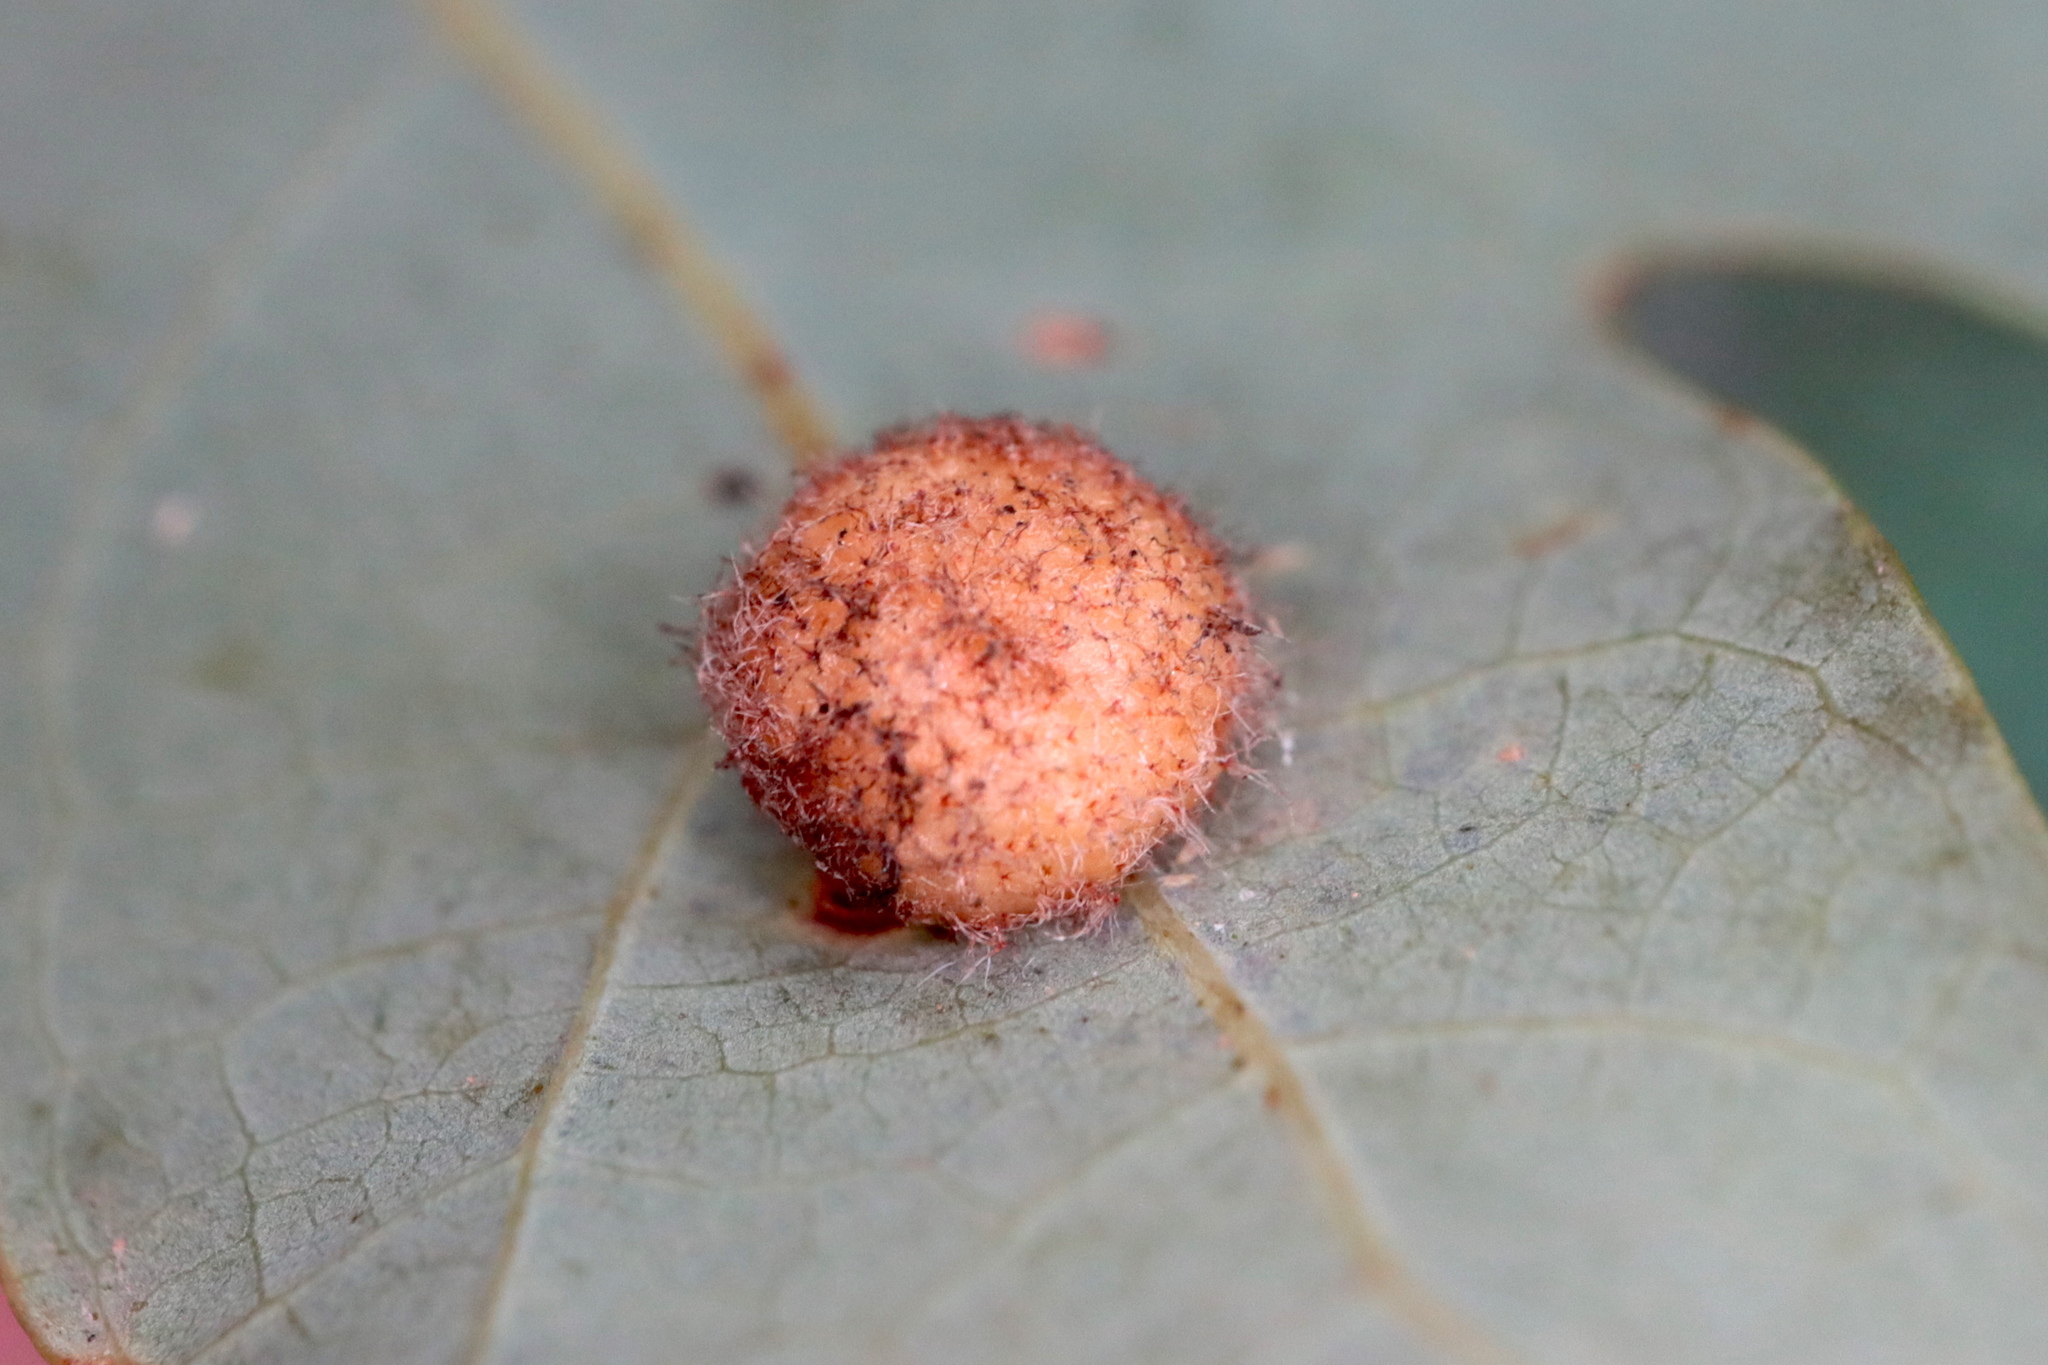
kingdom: Animalia
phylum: Arthropoda
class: Insecta
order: Hymenoptera
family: Cynipidae
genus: Philonix
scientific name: Philonix fulvicollis
